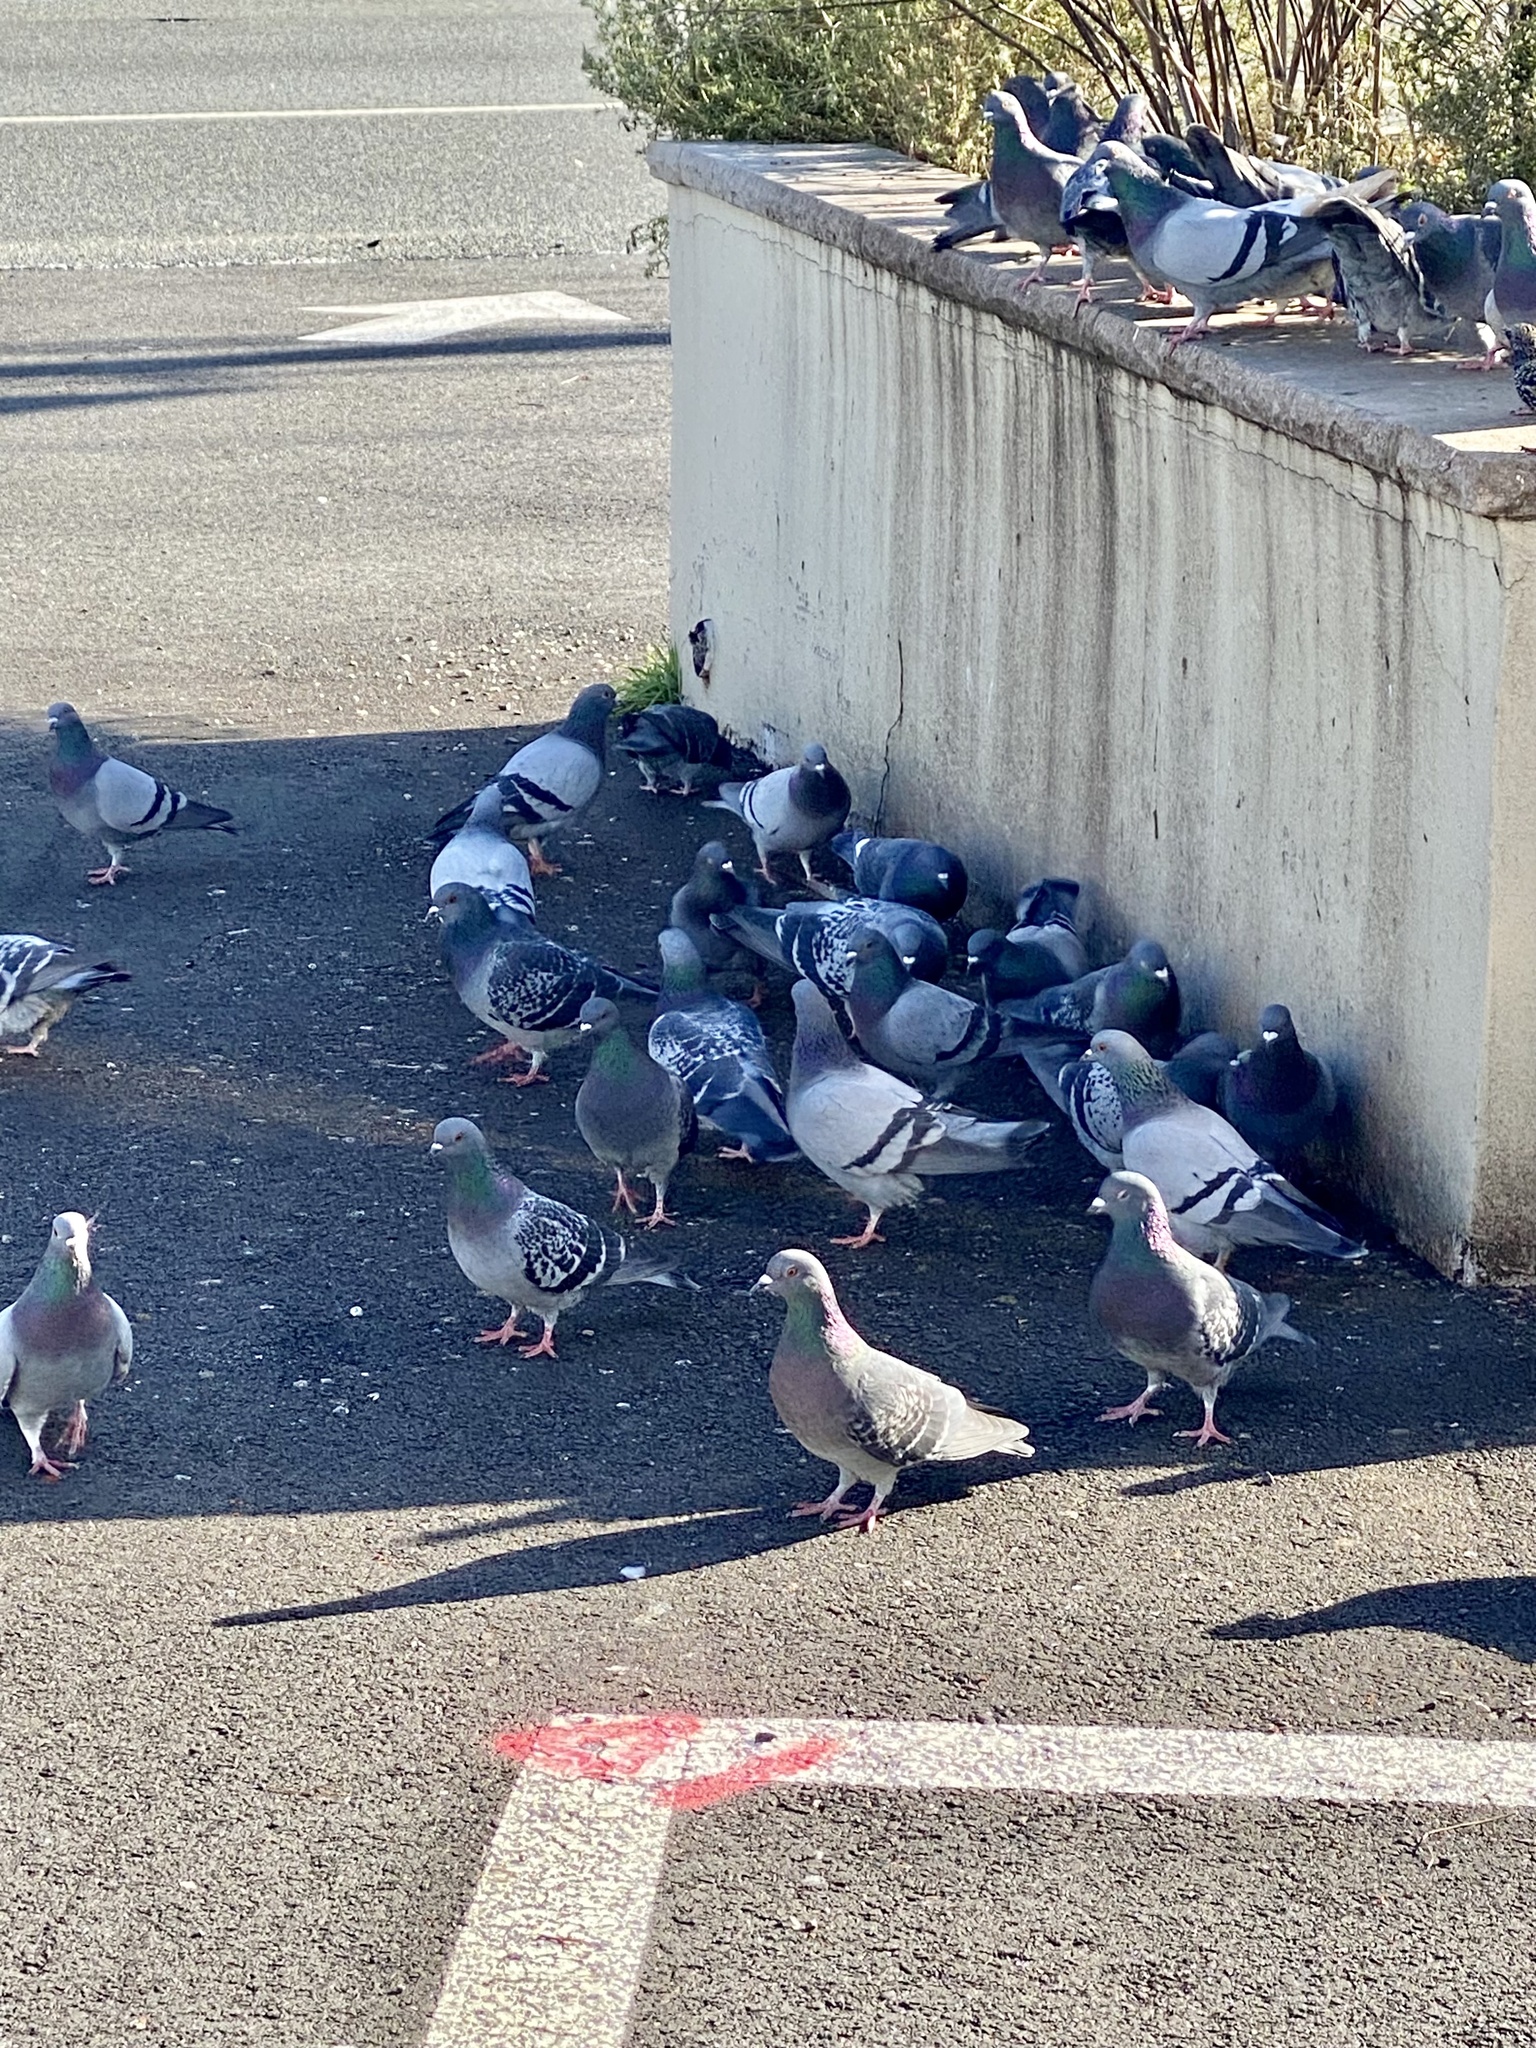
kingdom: Animalia
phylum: Chordata
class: Aves
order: Columbiformes
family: Columbidae
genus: Columba
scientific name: Columba livia
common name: Rock pigeon
